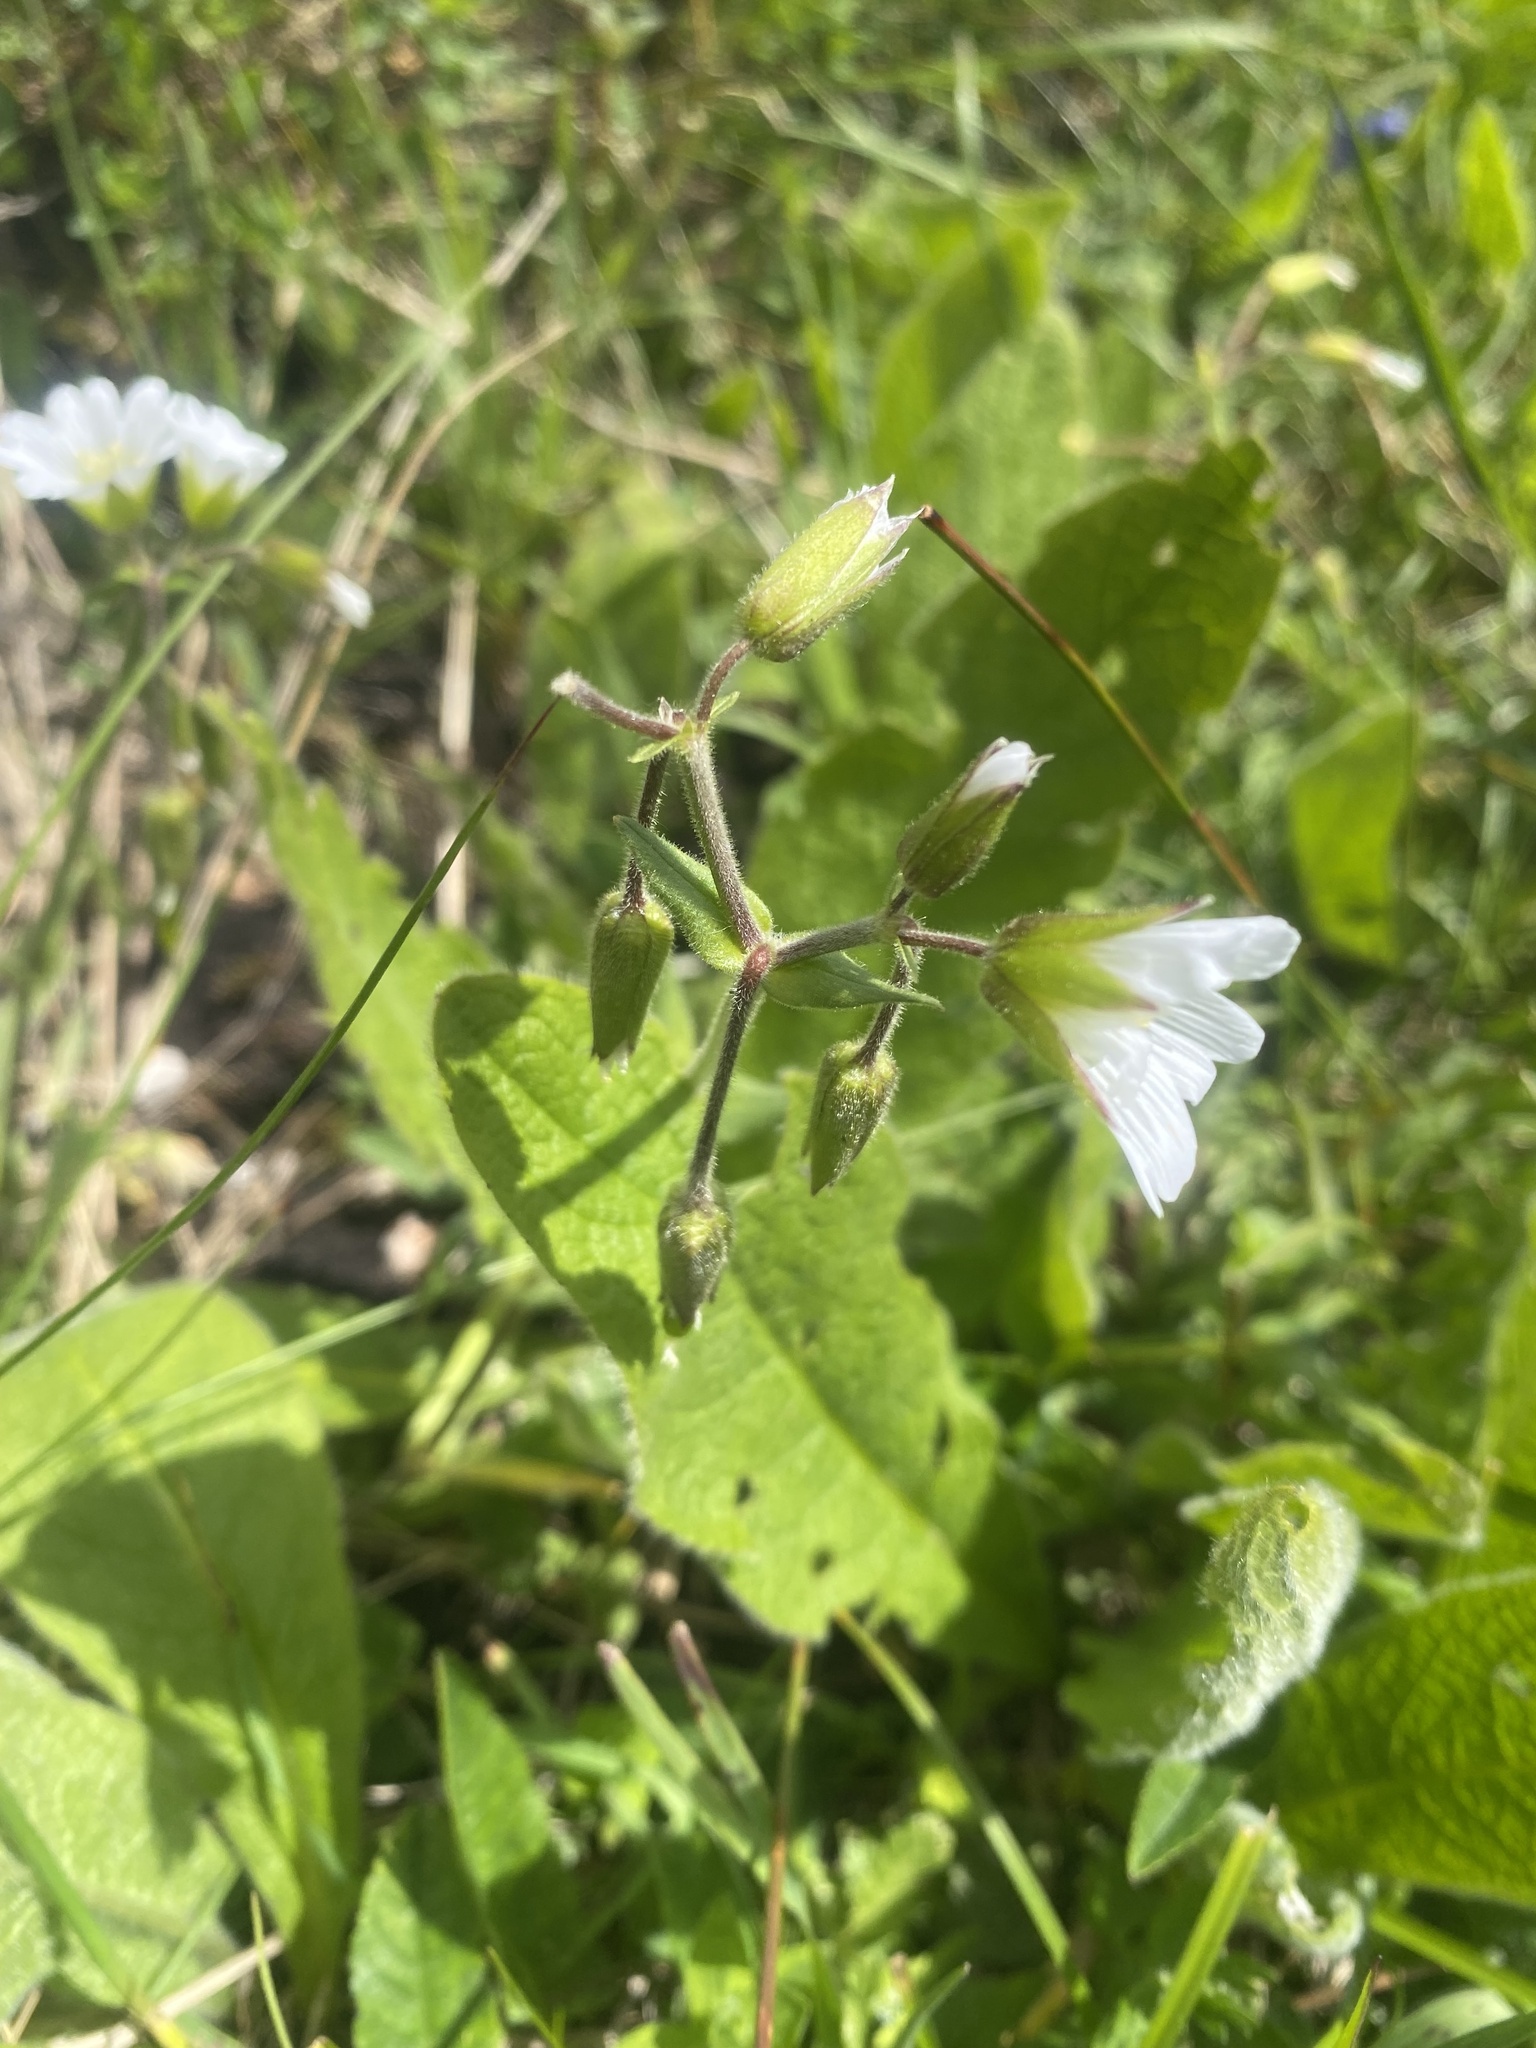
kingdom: Plantae
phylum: Tracheophyta
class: Magnoliopsida
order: Caryophyllales
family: Caryophyllaceae
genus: Dichodon
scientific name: Dichodon cerastoides
